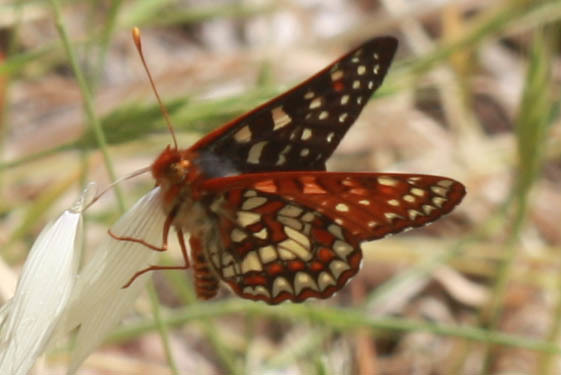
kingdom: Animalia
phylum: Arthropoda
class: Insecta
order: Lepidoptera
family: Nymphalidae
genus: Occidryas
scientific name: Occidryas chalcedona
